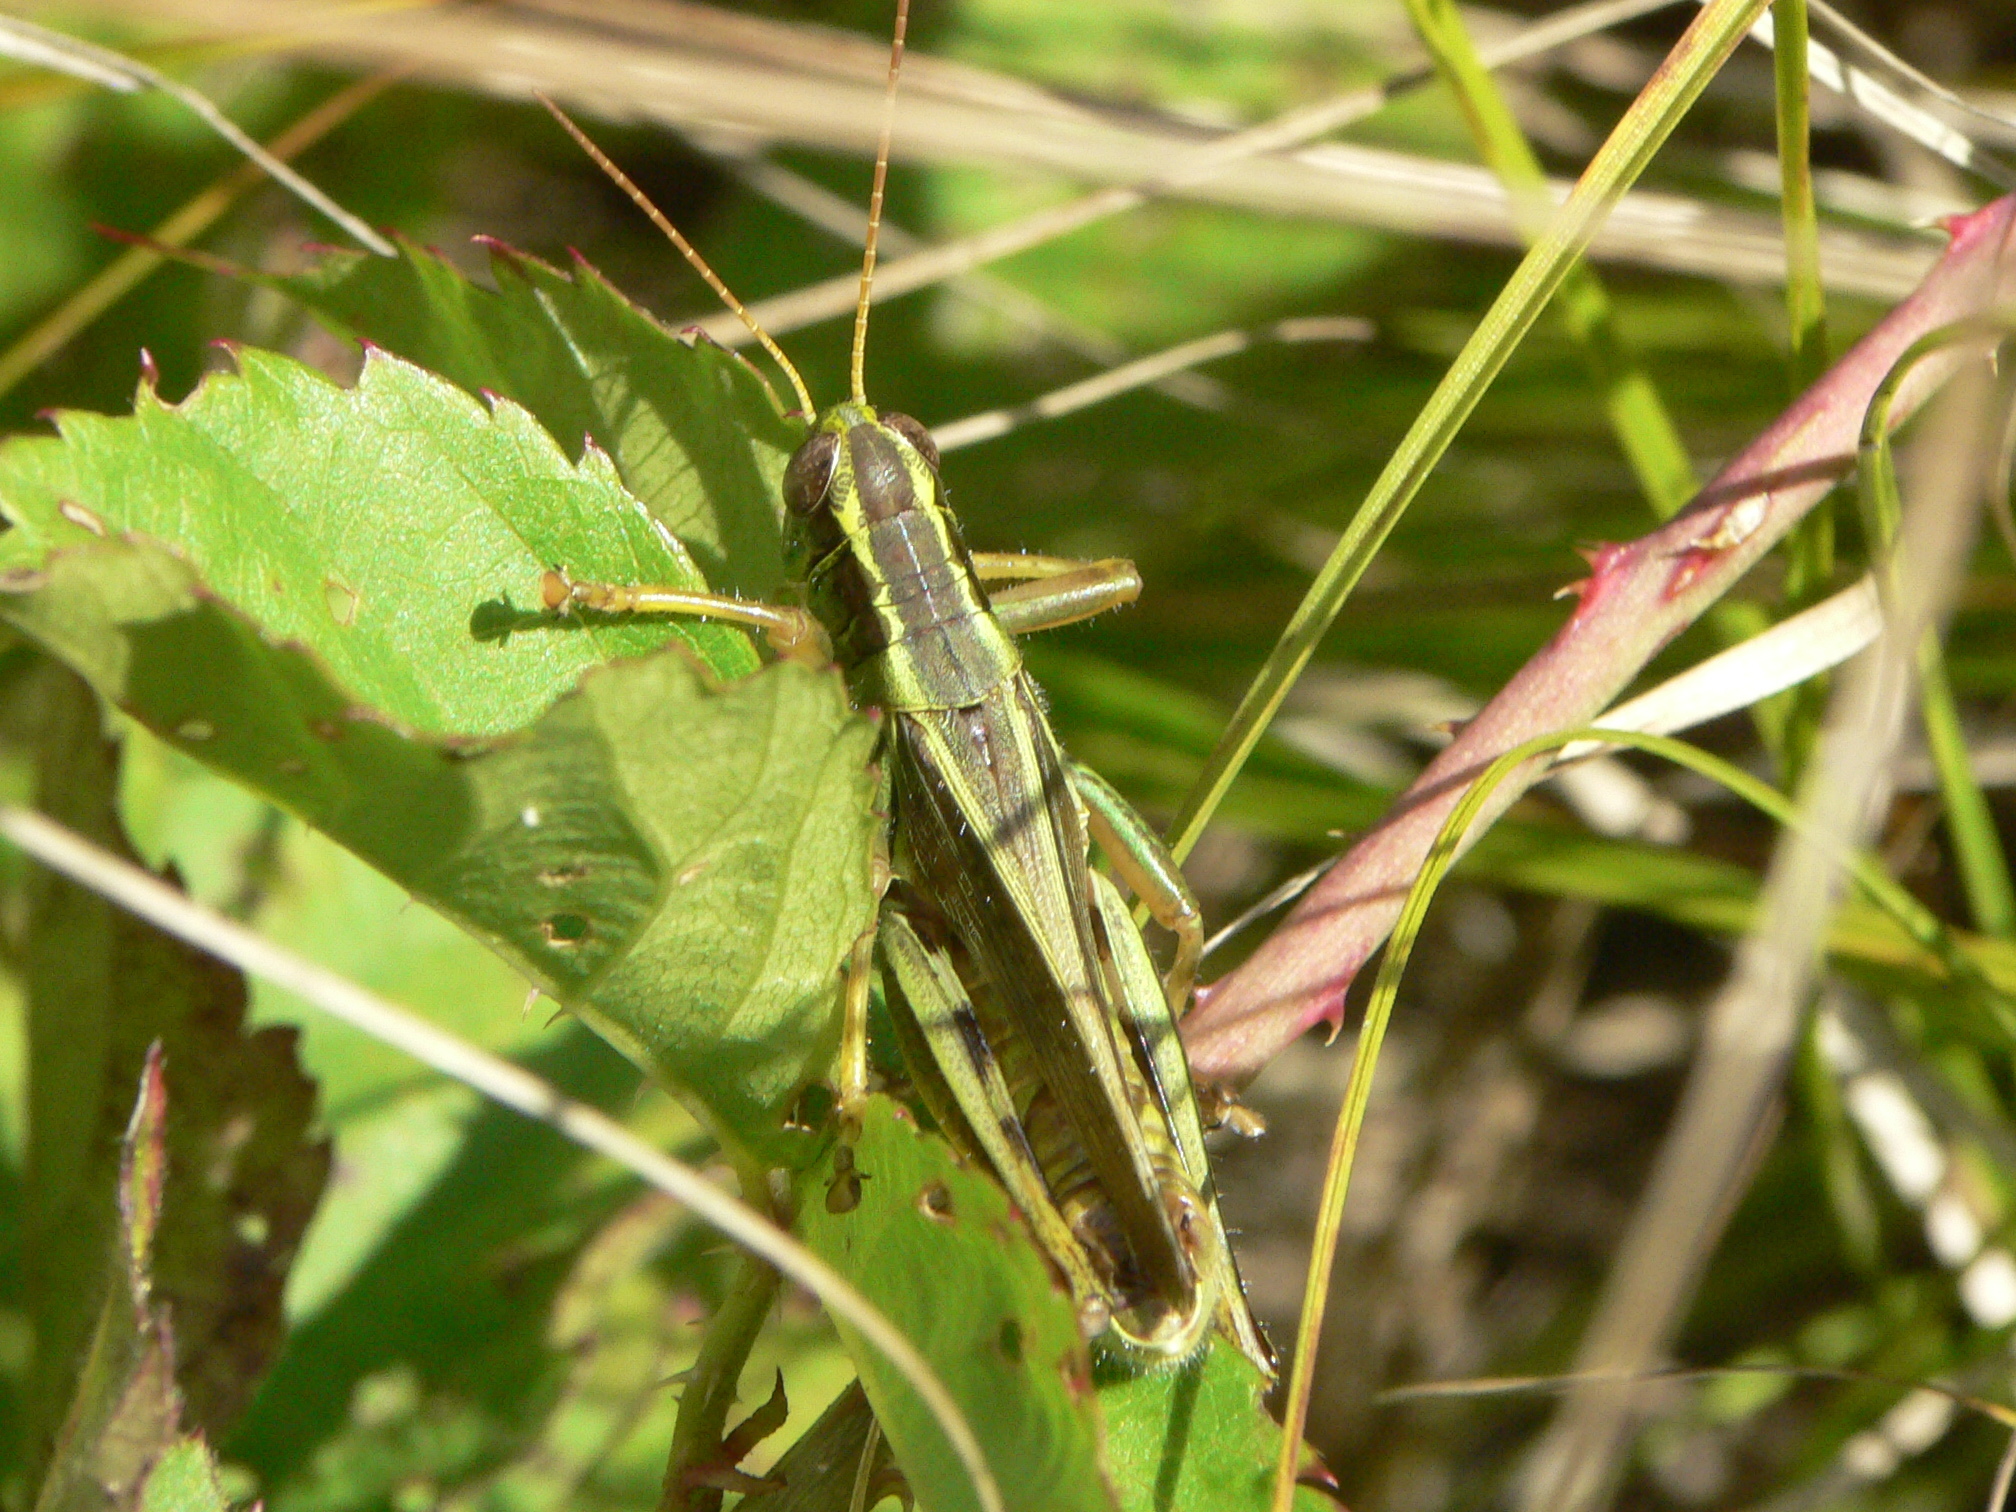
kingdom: Animalia
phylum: Arthropoda
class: Insecta
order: Orthoptera
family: Acrididae
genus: Melanoplus
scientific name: Melanoplus bivittatus
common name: Two-striped grasshopper
